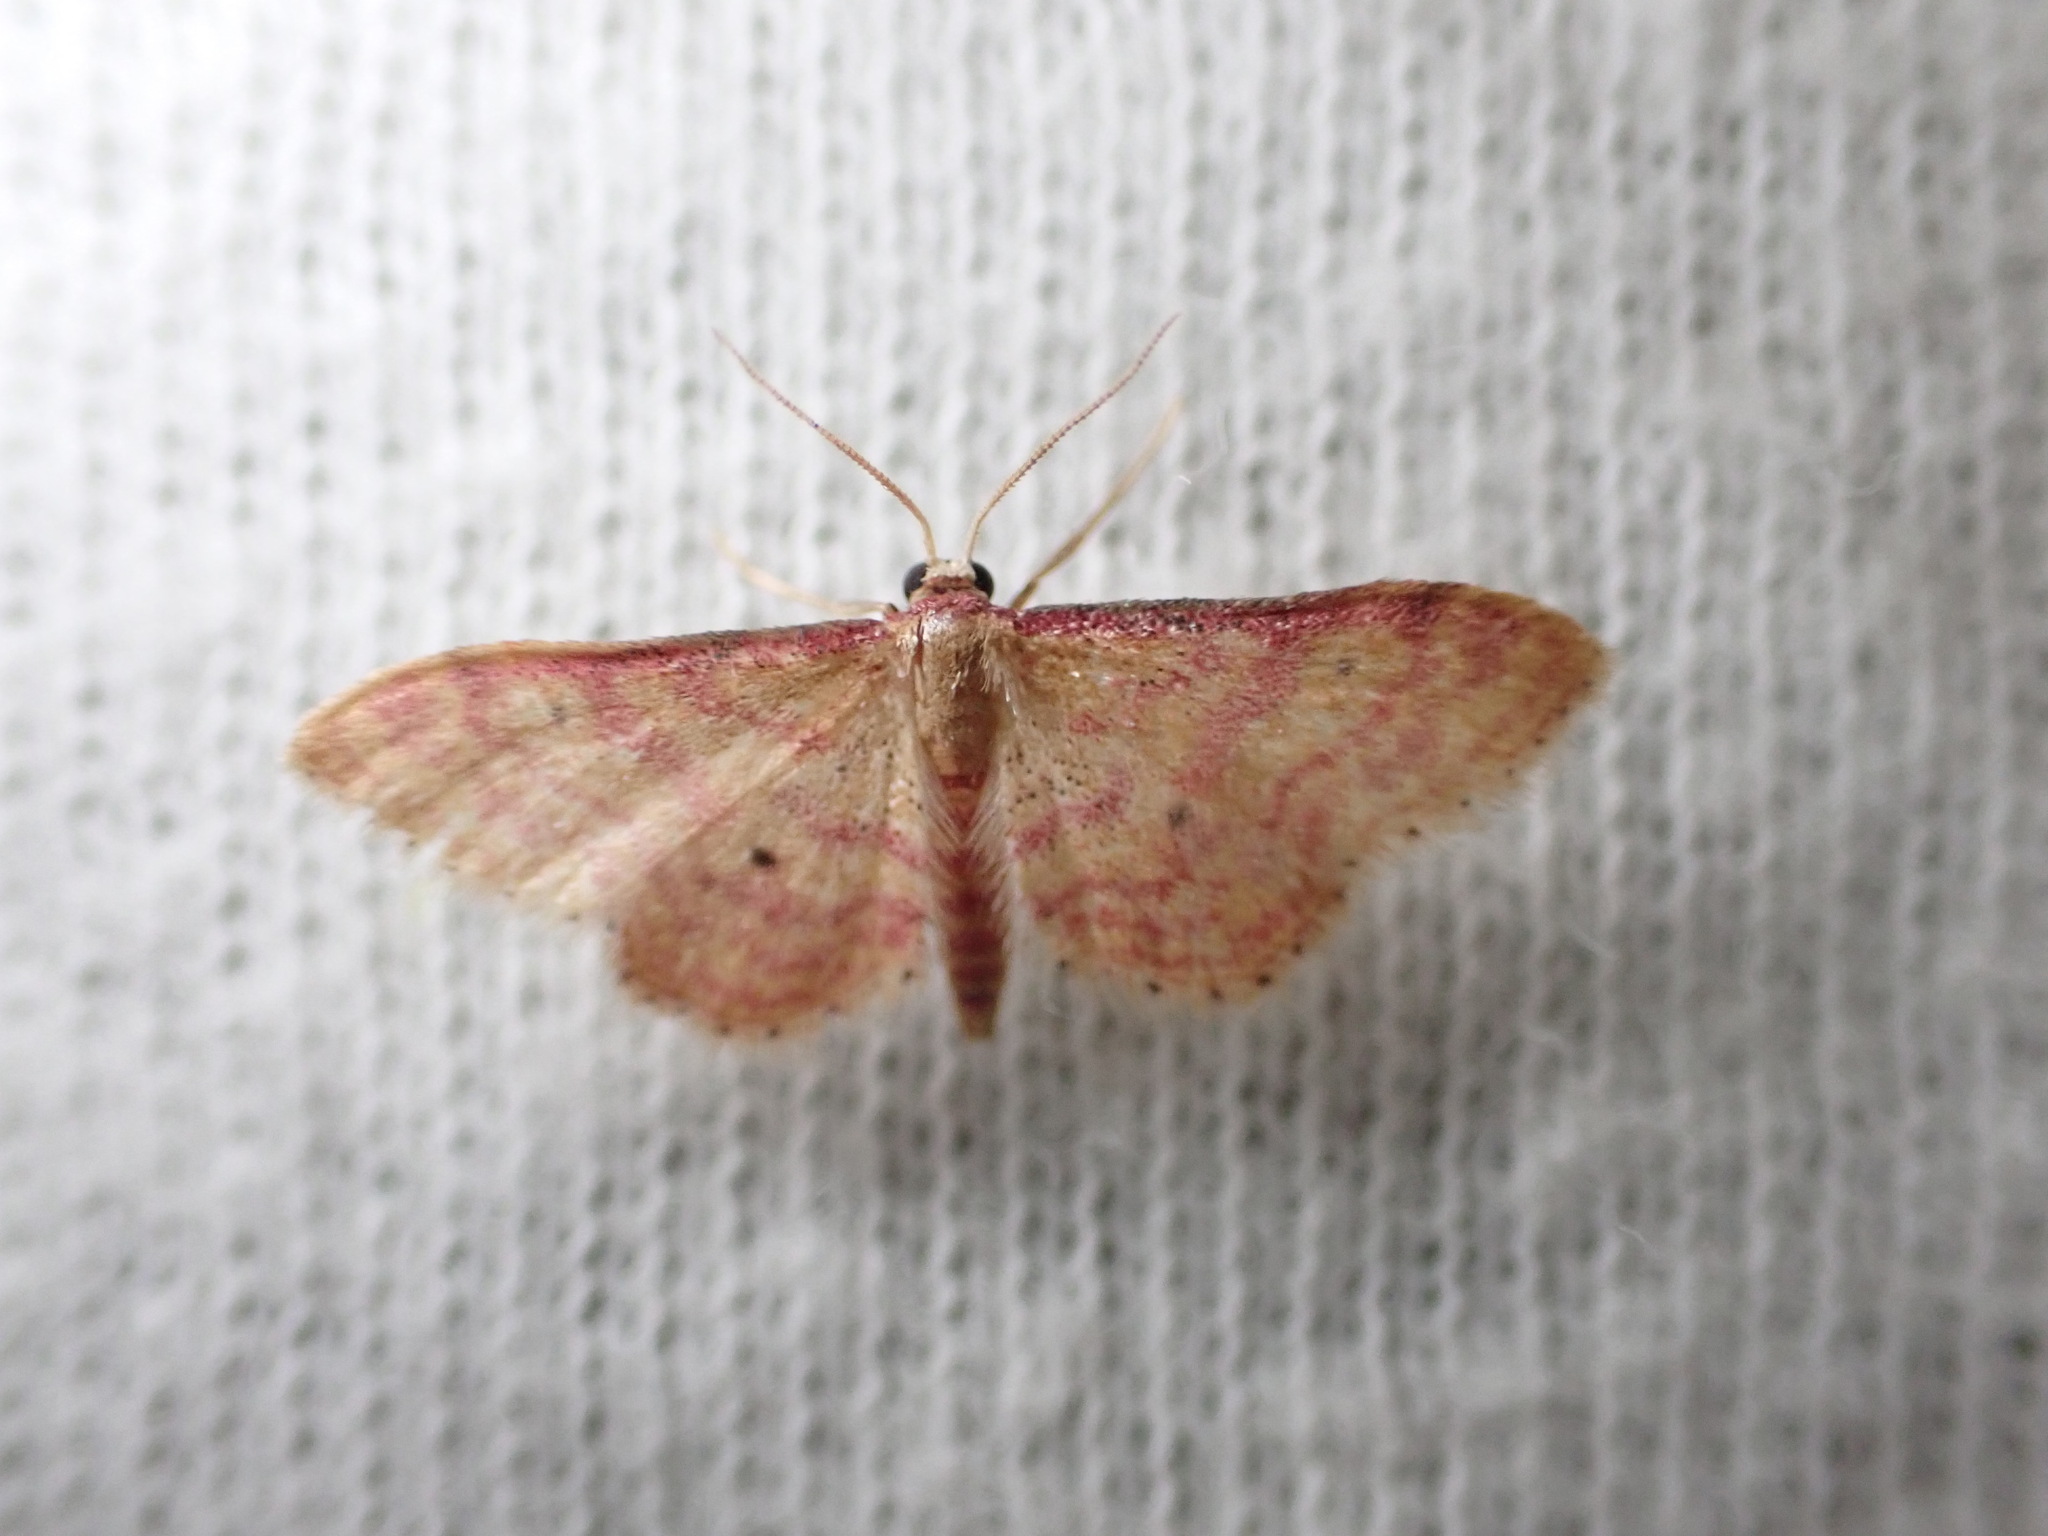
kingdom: Animalia
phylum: Arthropoda
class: Insecta
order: Lepidoptera
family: Geometridae
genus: Idaea
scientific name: Idaea rhodogrammaria
